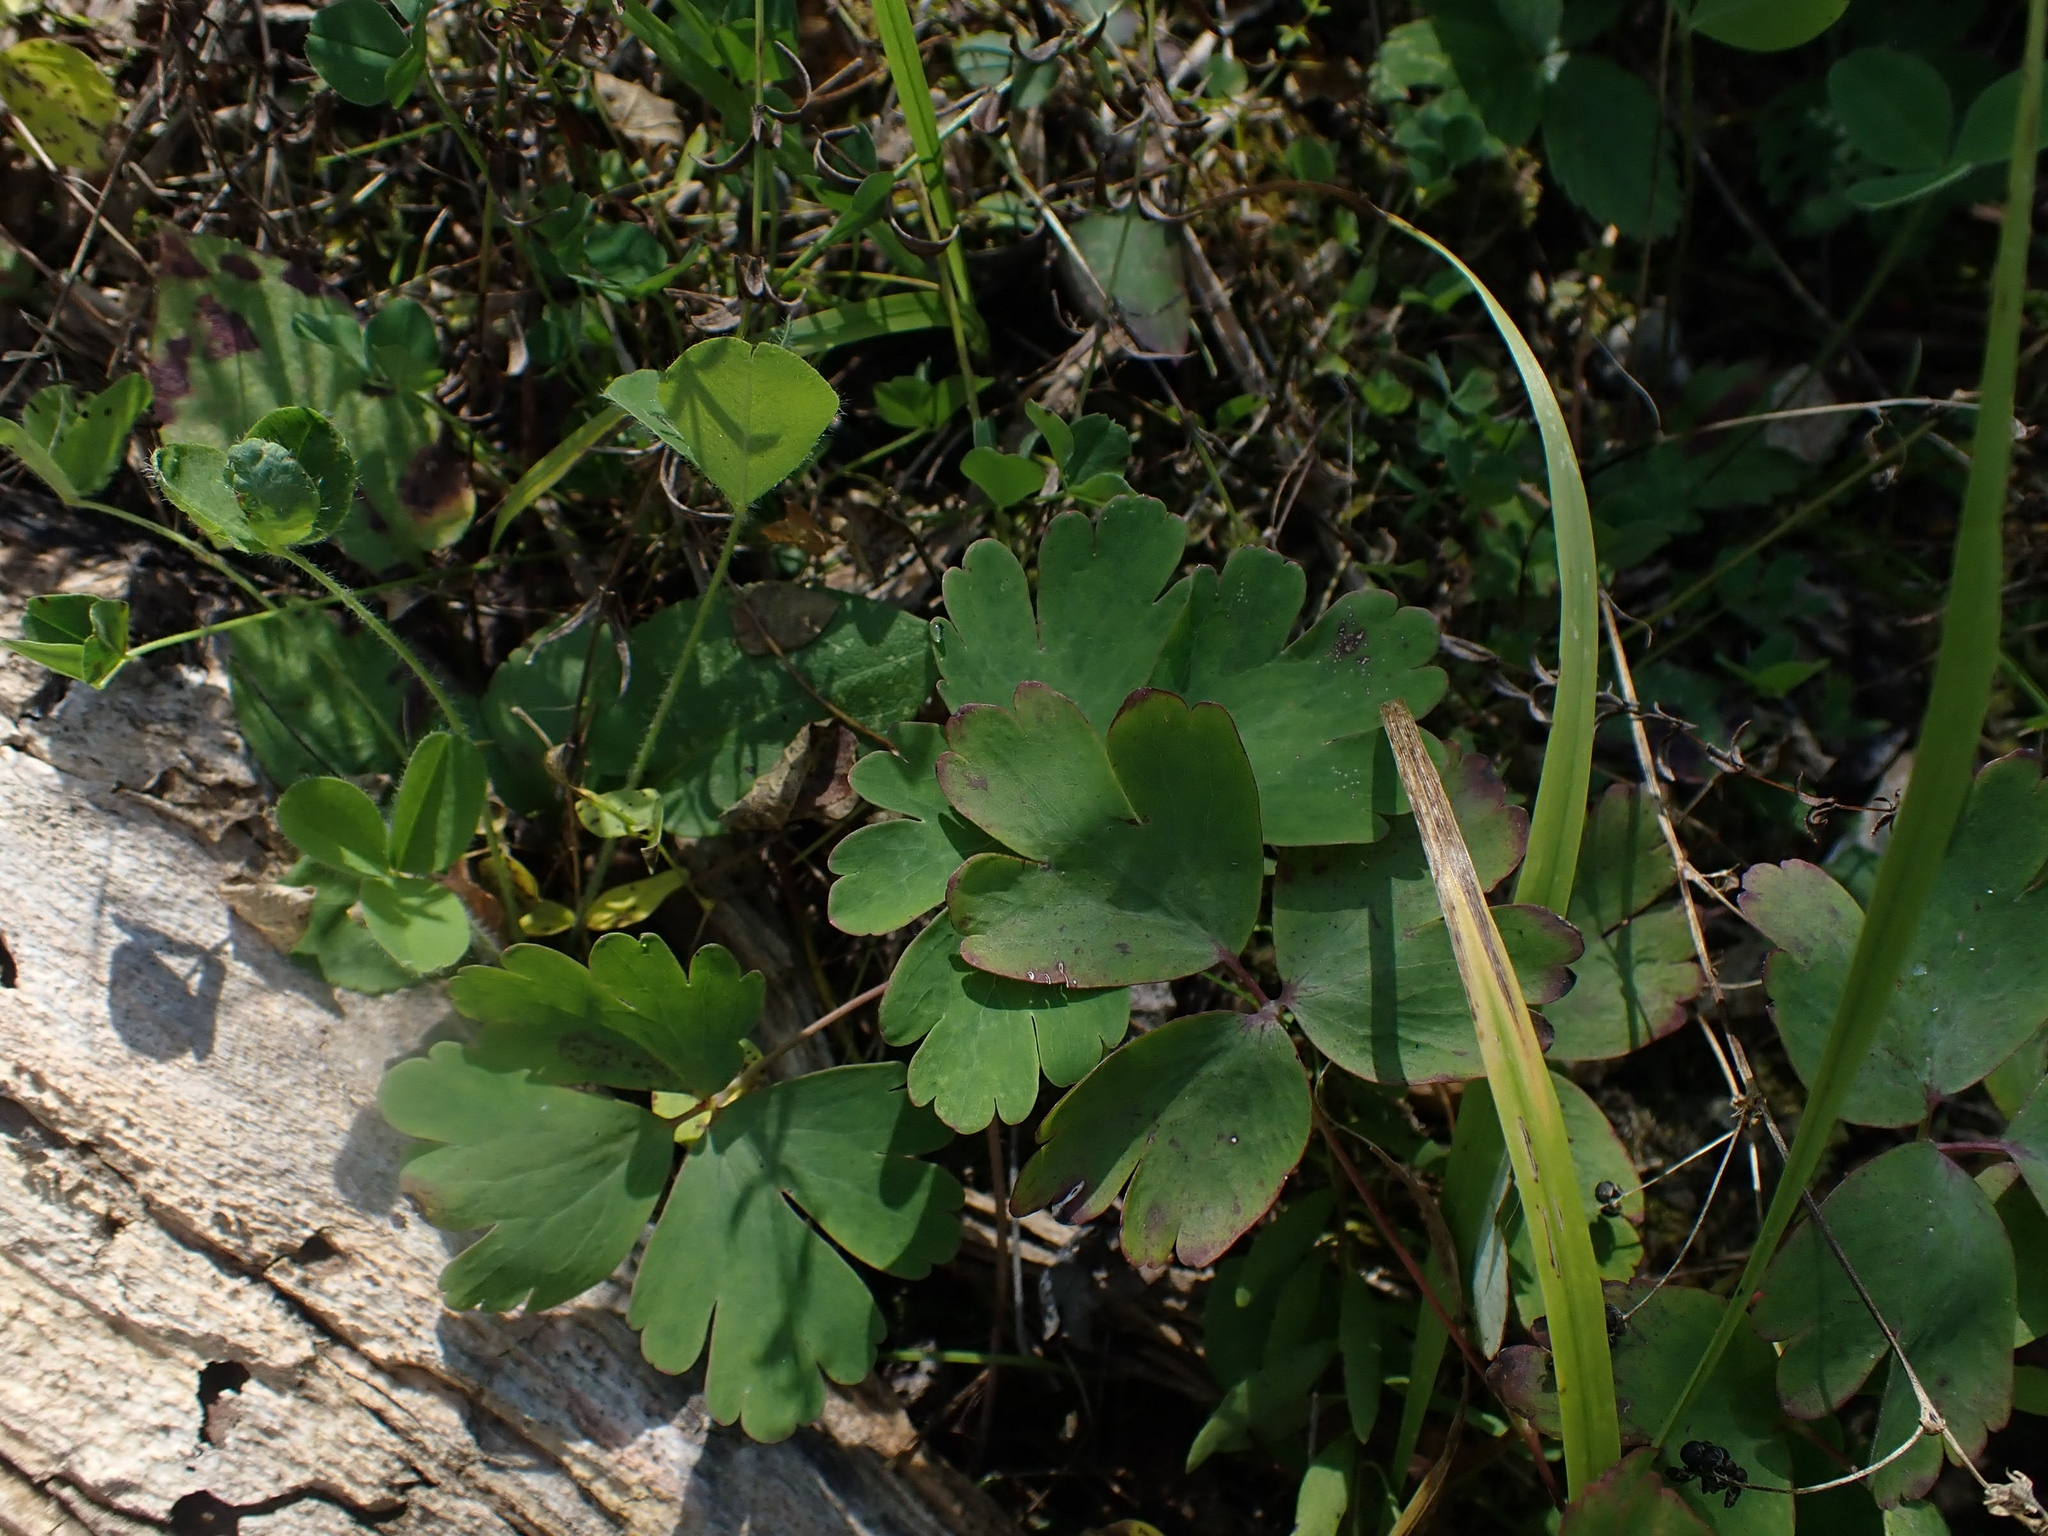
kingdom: Plantae
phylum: Tracheophyta
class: Magnoliopsida
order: Ranunculales
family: Ranunculaceae
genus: Aquilegia
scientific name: Aquilegia canadensis
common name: American columbine
